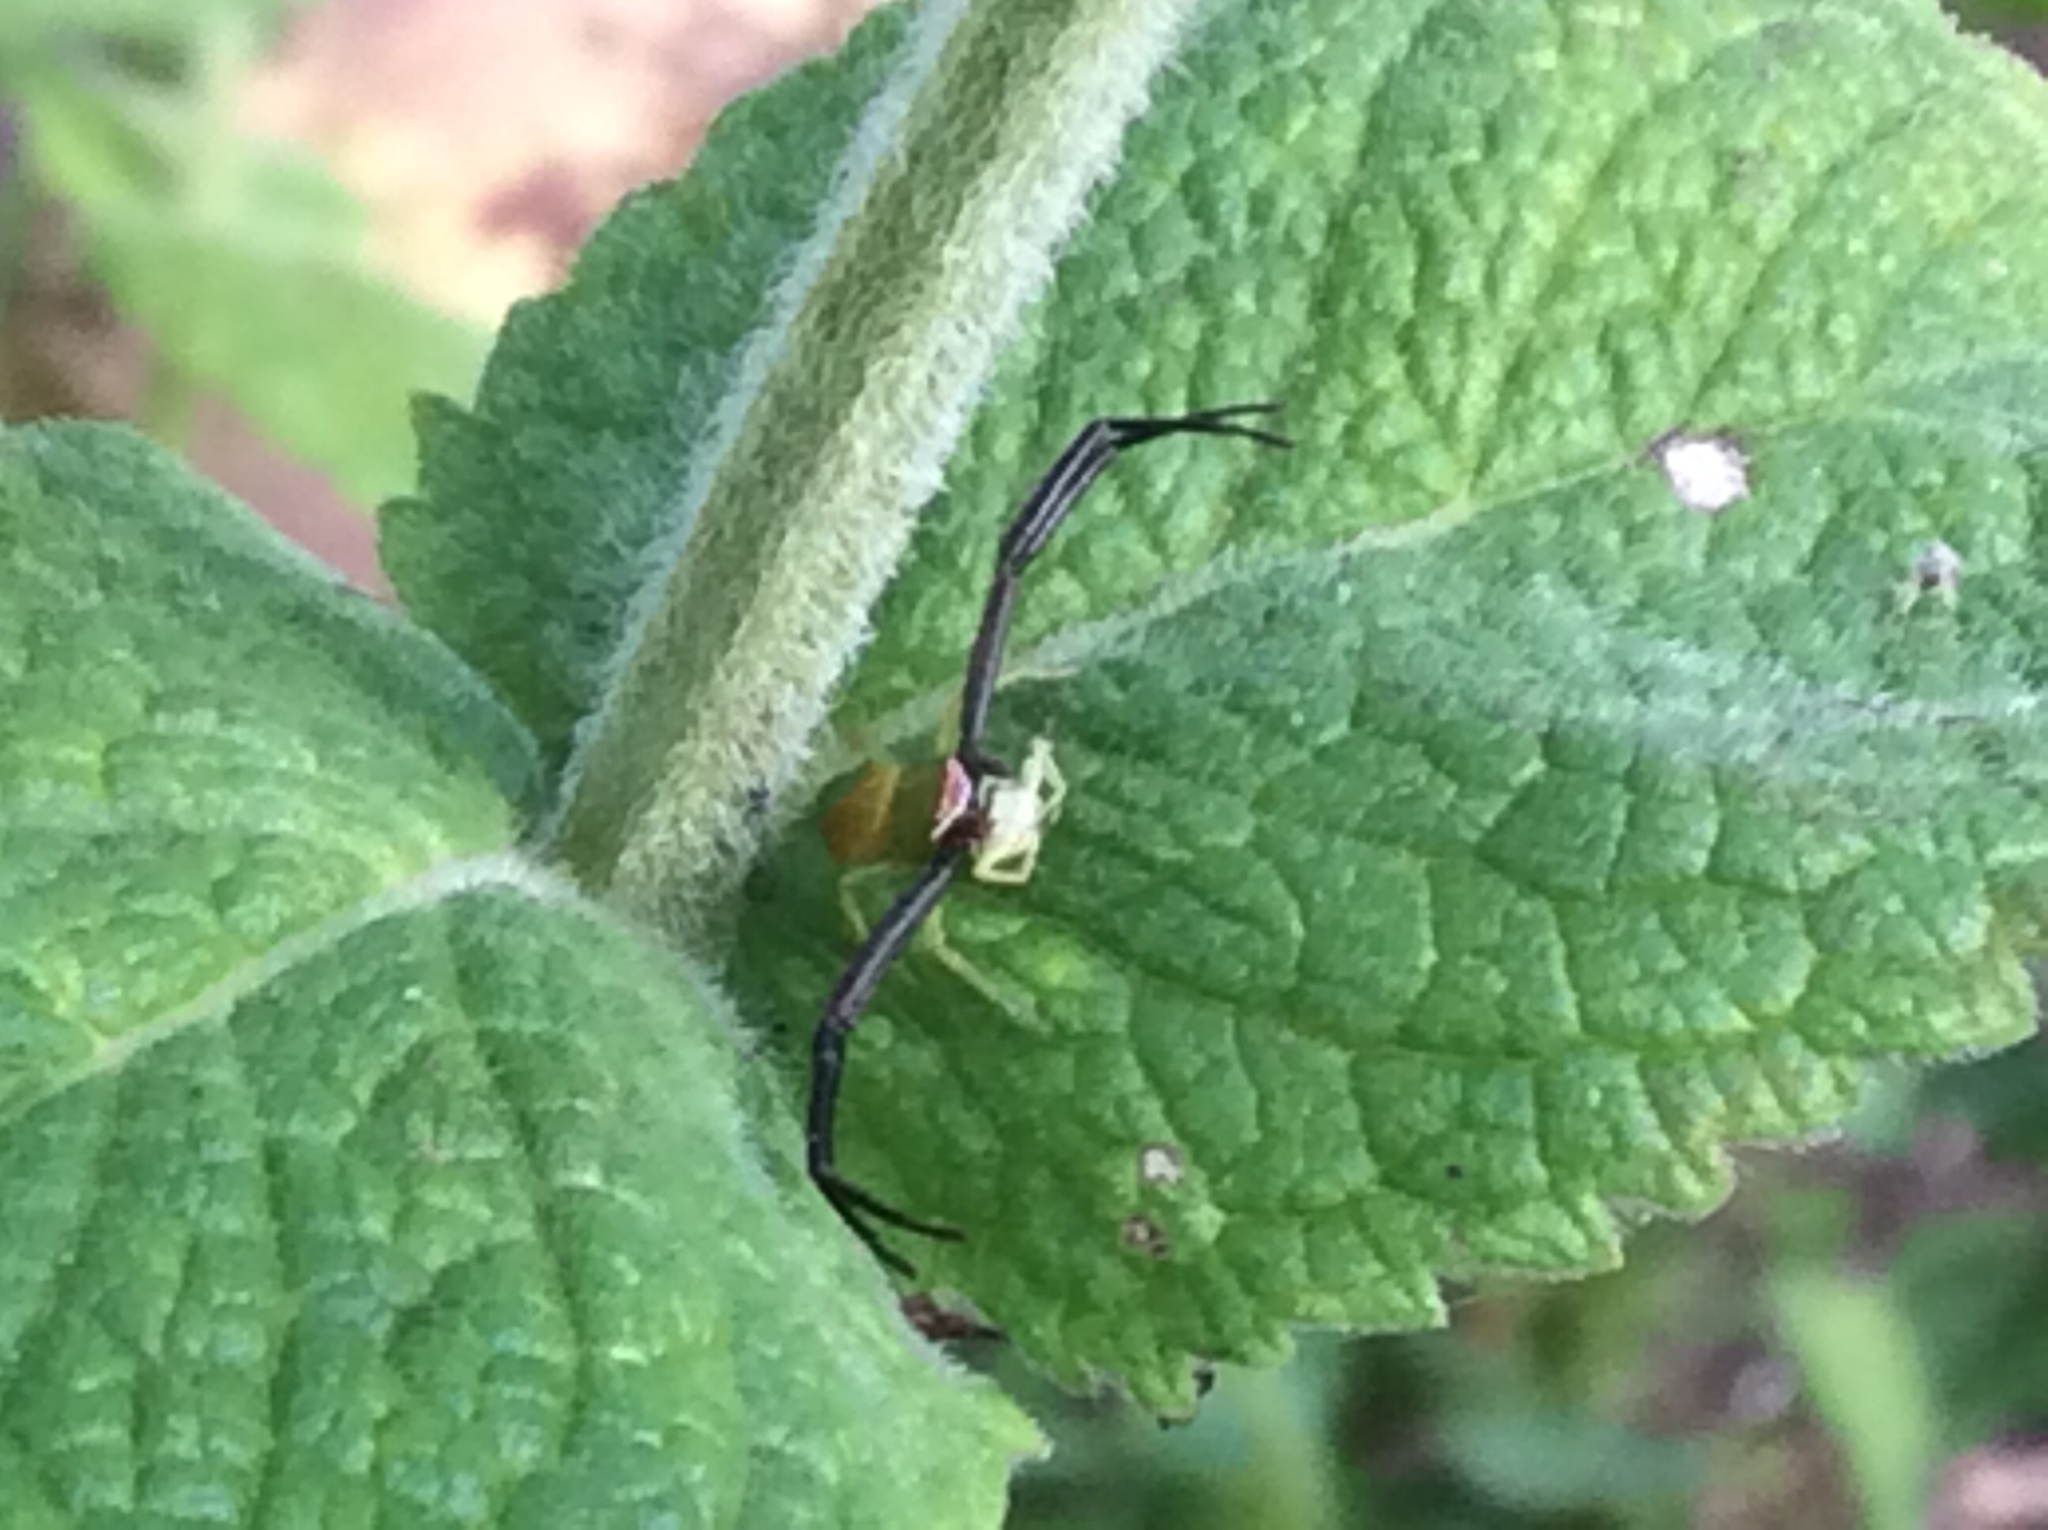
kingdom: Animalia
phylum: Arthropoda
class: Arachnida
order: Araneae
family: Thomisidae
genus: Misumenoides
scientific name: Misumenoides formosipes
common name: White-banded crab spider
